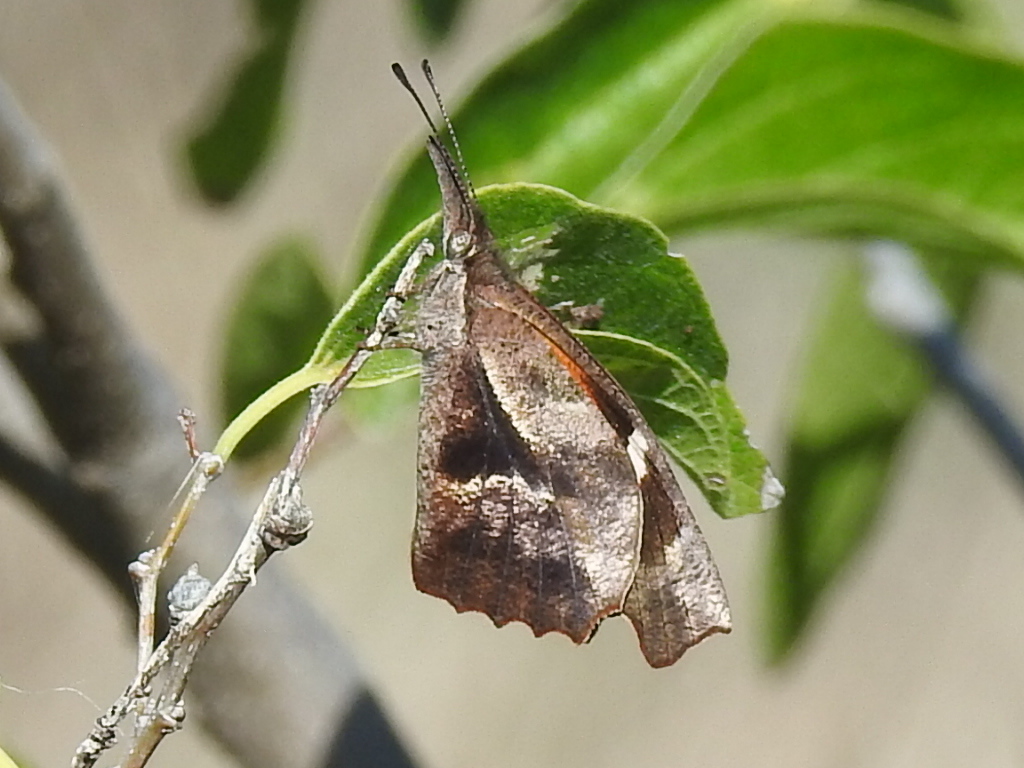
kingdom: Animalia
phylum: Arthropoda
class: Insecta
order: Lepidoptera
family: Nymphalidae
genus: Libytheana
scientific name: Libytheana carinenta
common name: American snout
